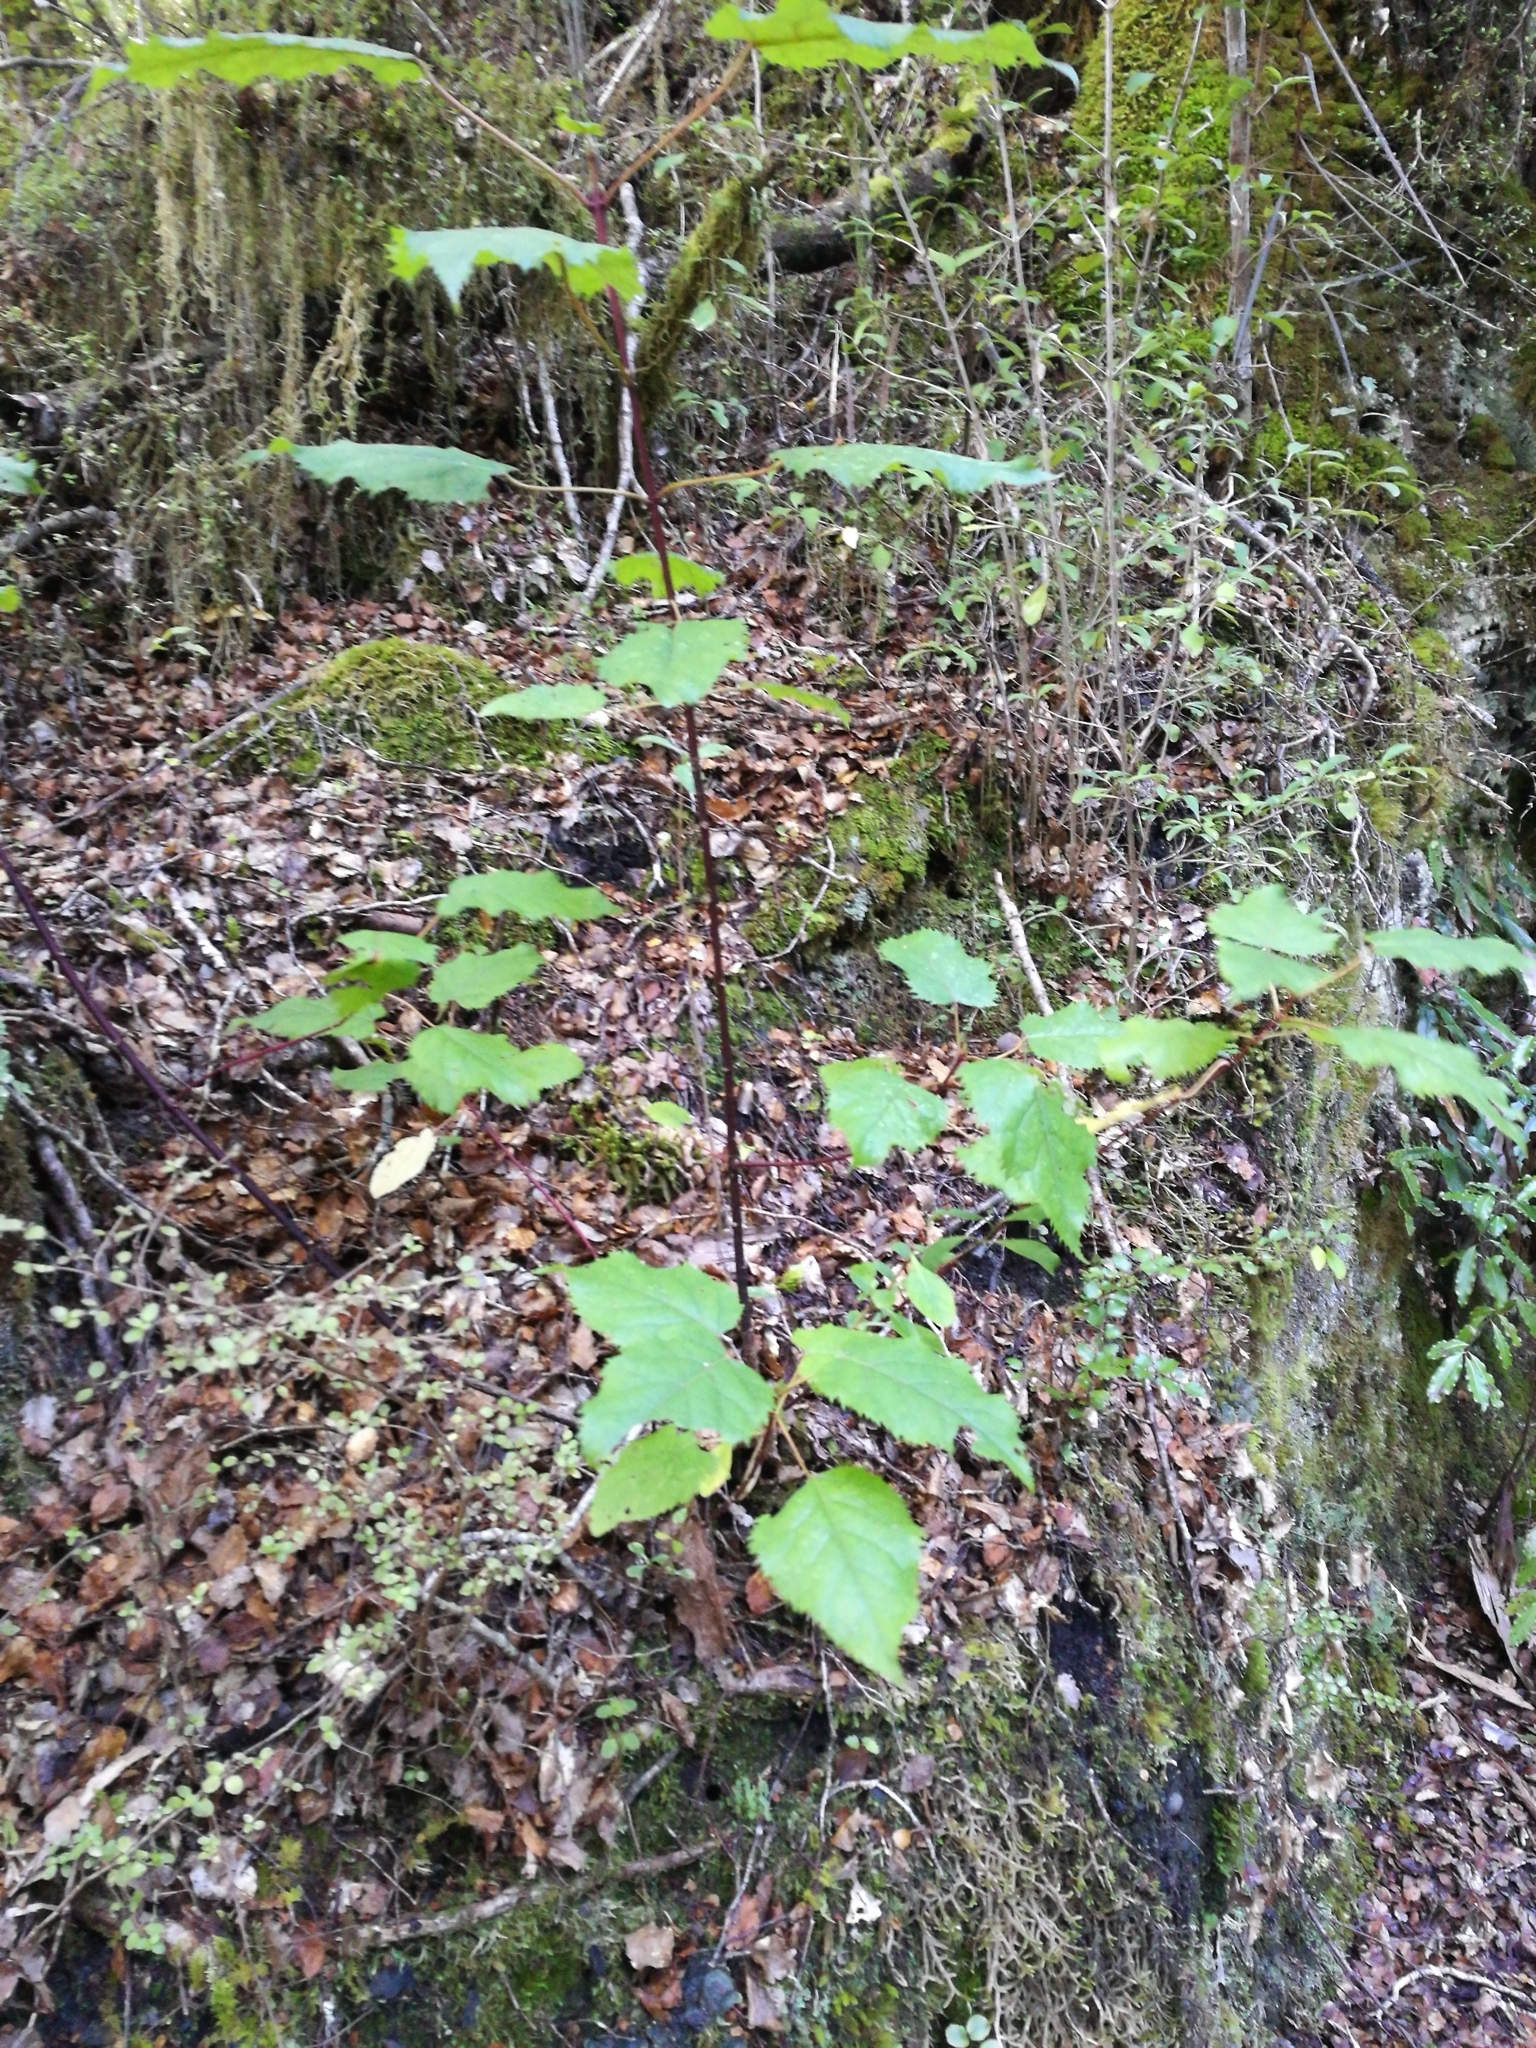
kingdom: Plantae
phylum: Tracheophyta
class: Magnoliopsida
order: Oxalidales
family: Elaeocarpaceae
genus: Aristotelia
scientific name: Aristotelia serrata
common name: New zealand wineberry
